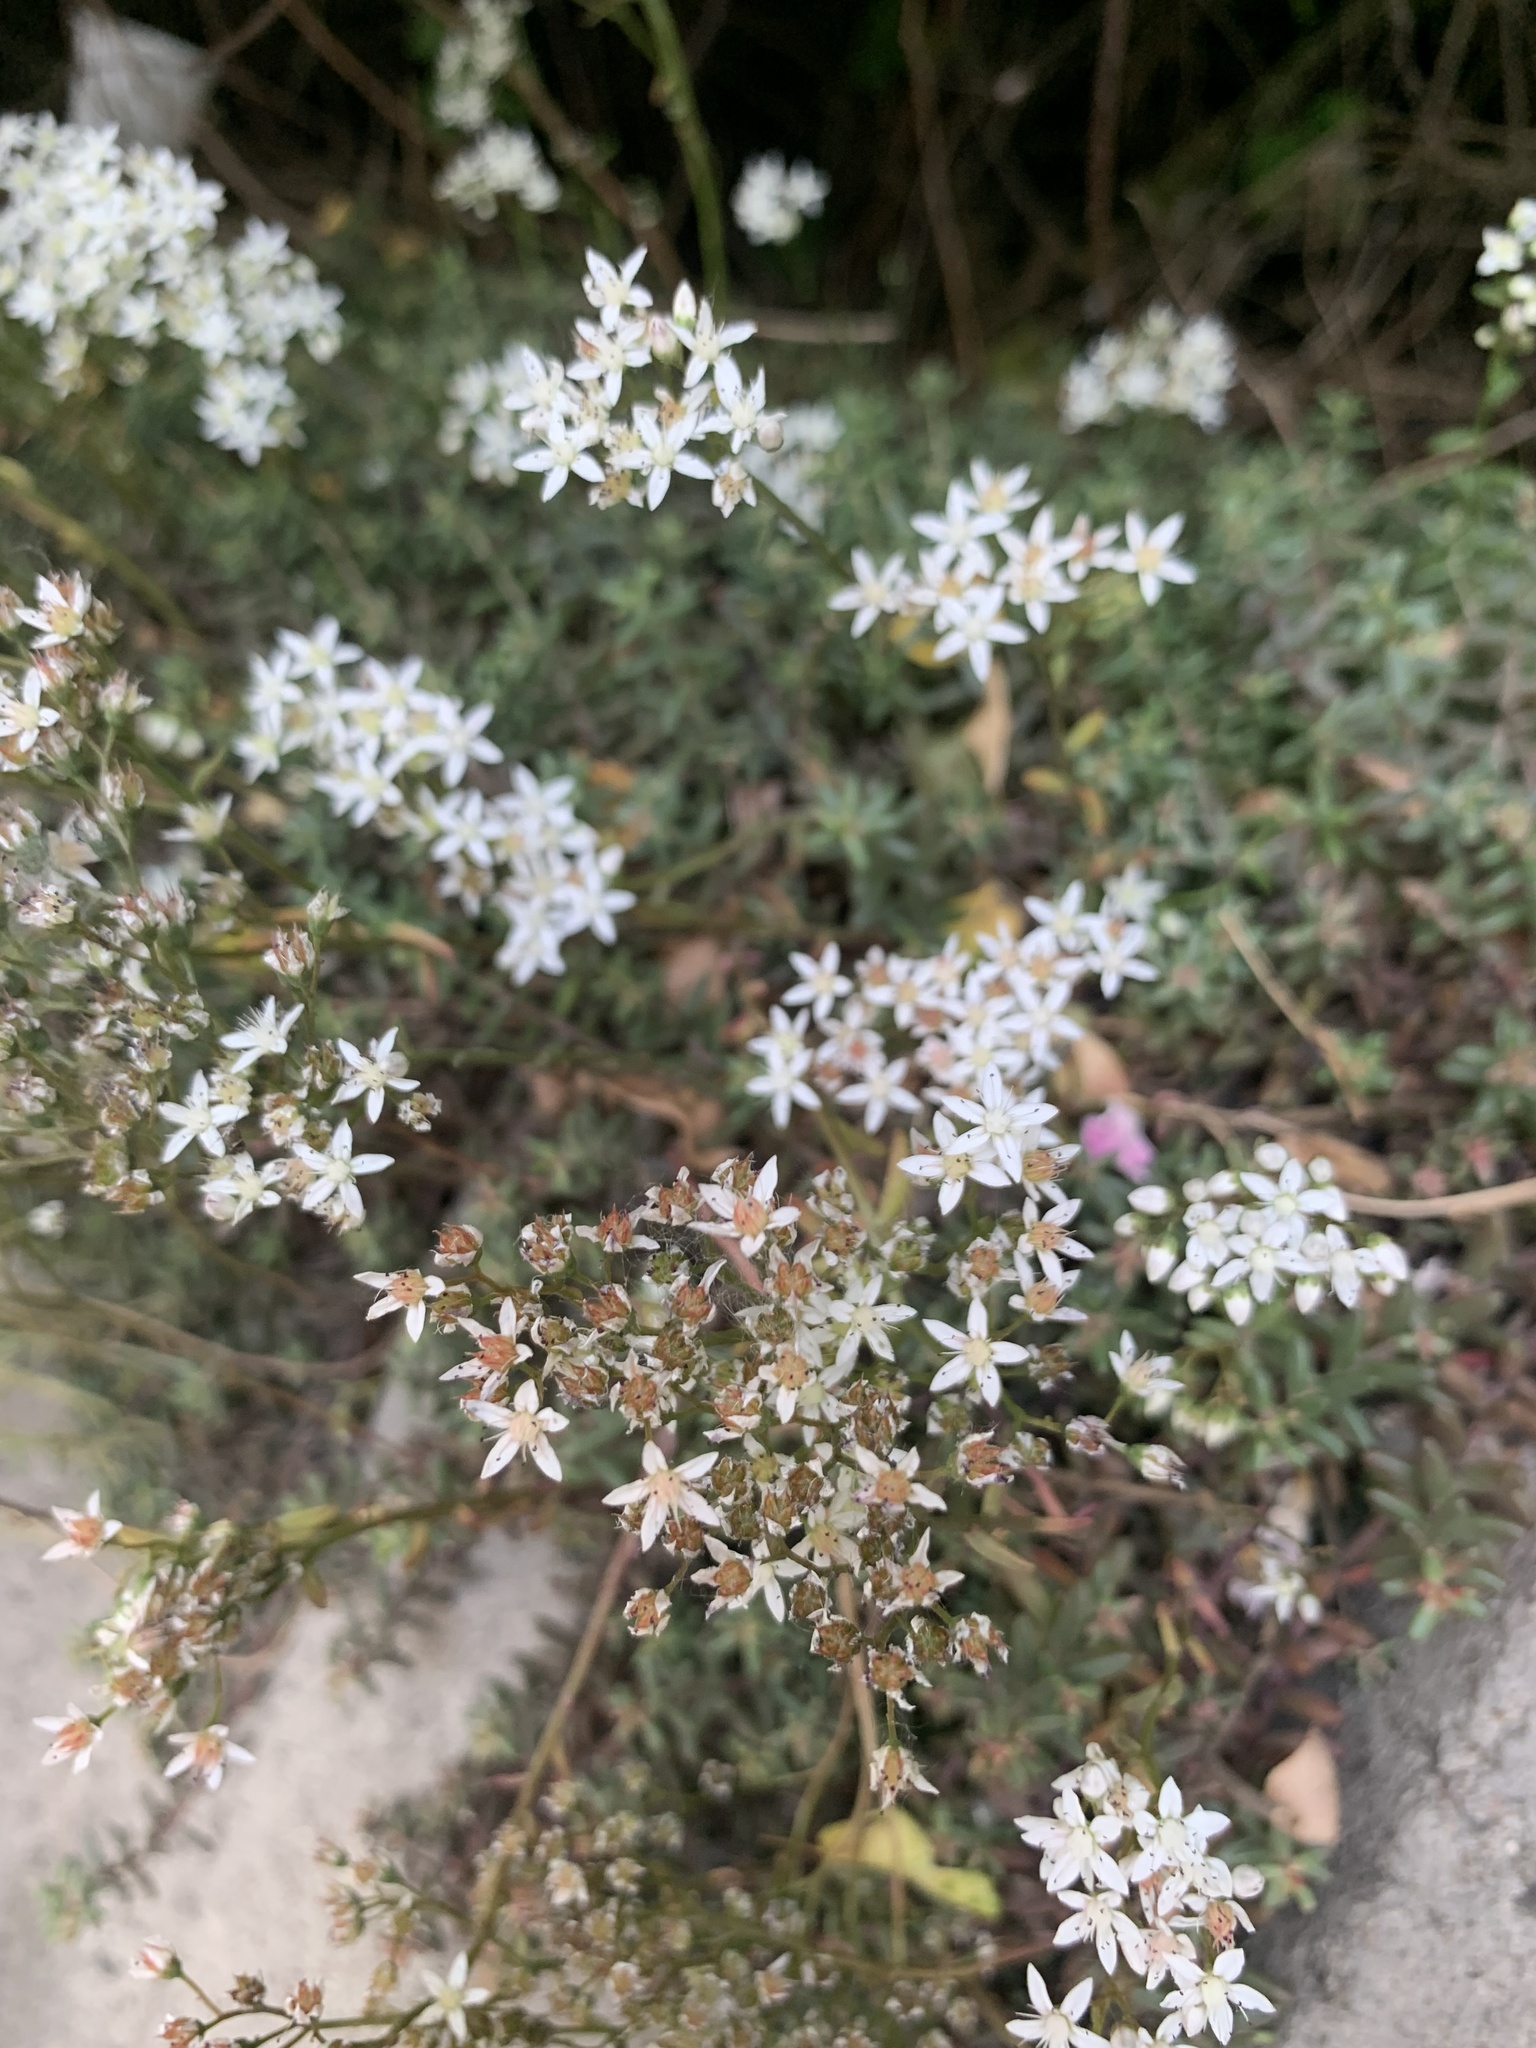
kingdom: Plantae
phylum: Tracheophyta
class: Magnoliopsida
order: Saxifragales
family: Crassulaceae
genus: Sedum
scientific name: Sedum album
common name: White stonecrop
